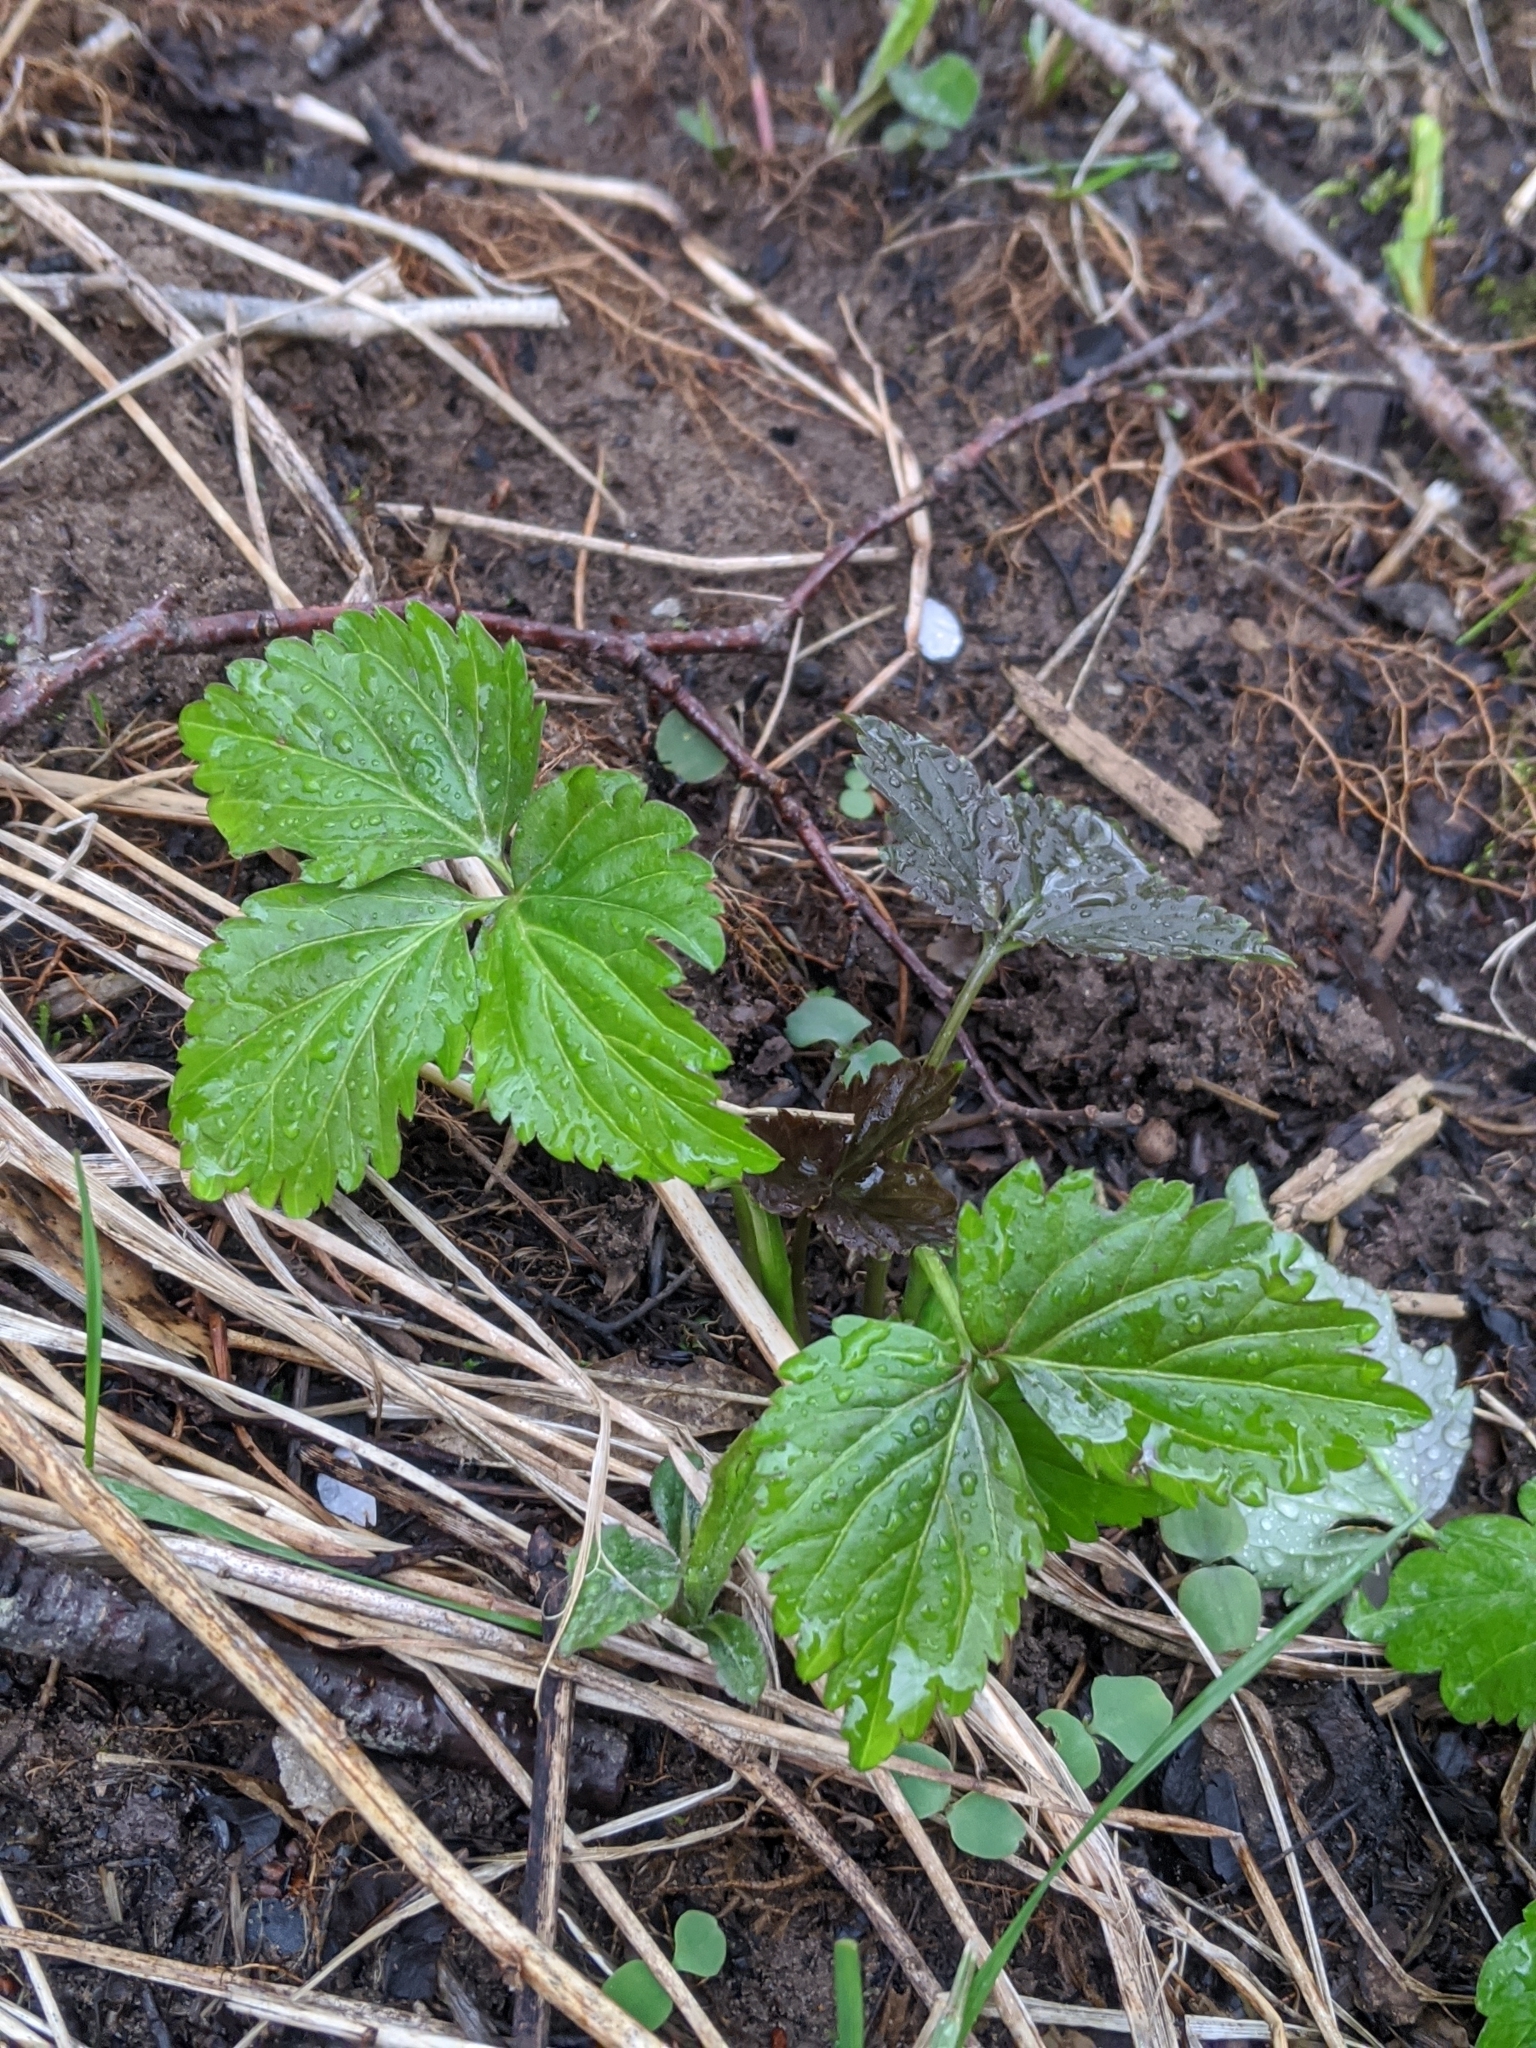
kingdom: Plantae
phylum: Tracheophyta
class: Magnoliopsida
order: Brassicales
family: Brassicaceae
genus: Cardamine
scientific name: Cardamine diphylla
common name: Broad-leaved toothwort
